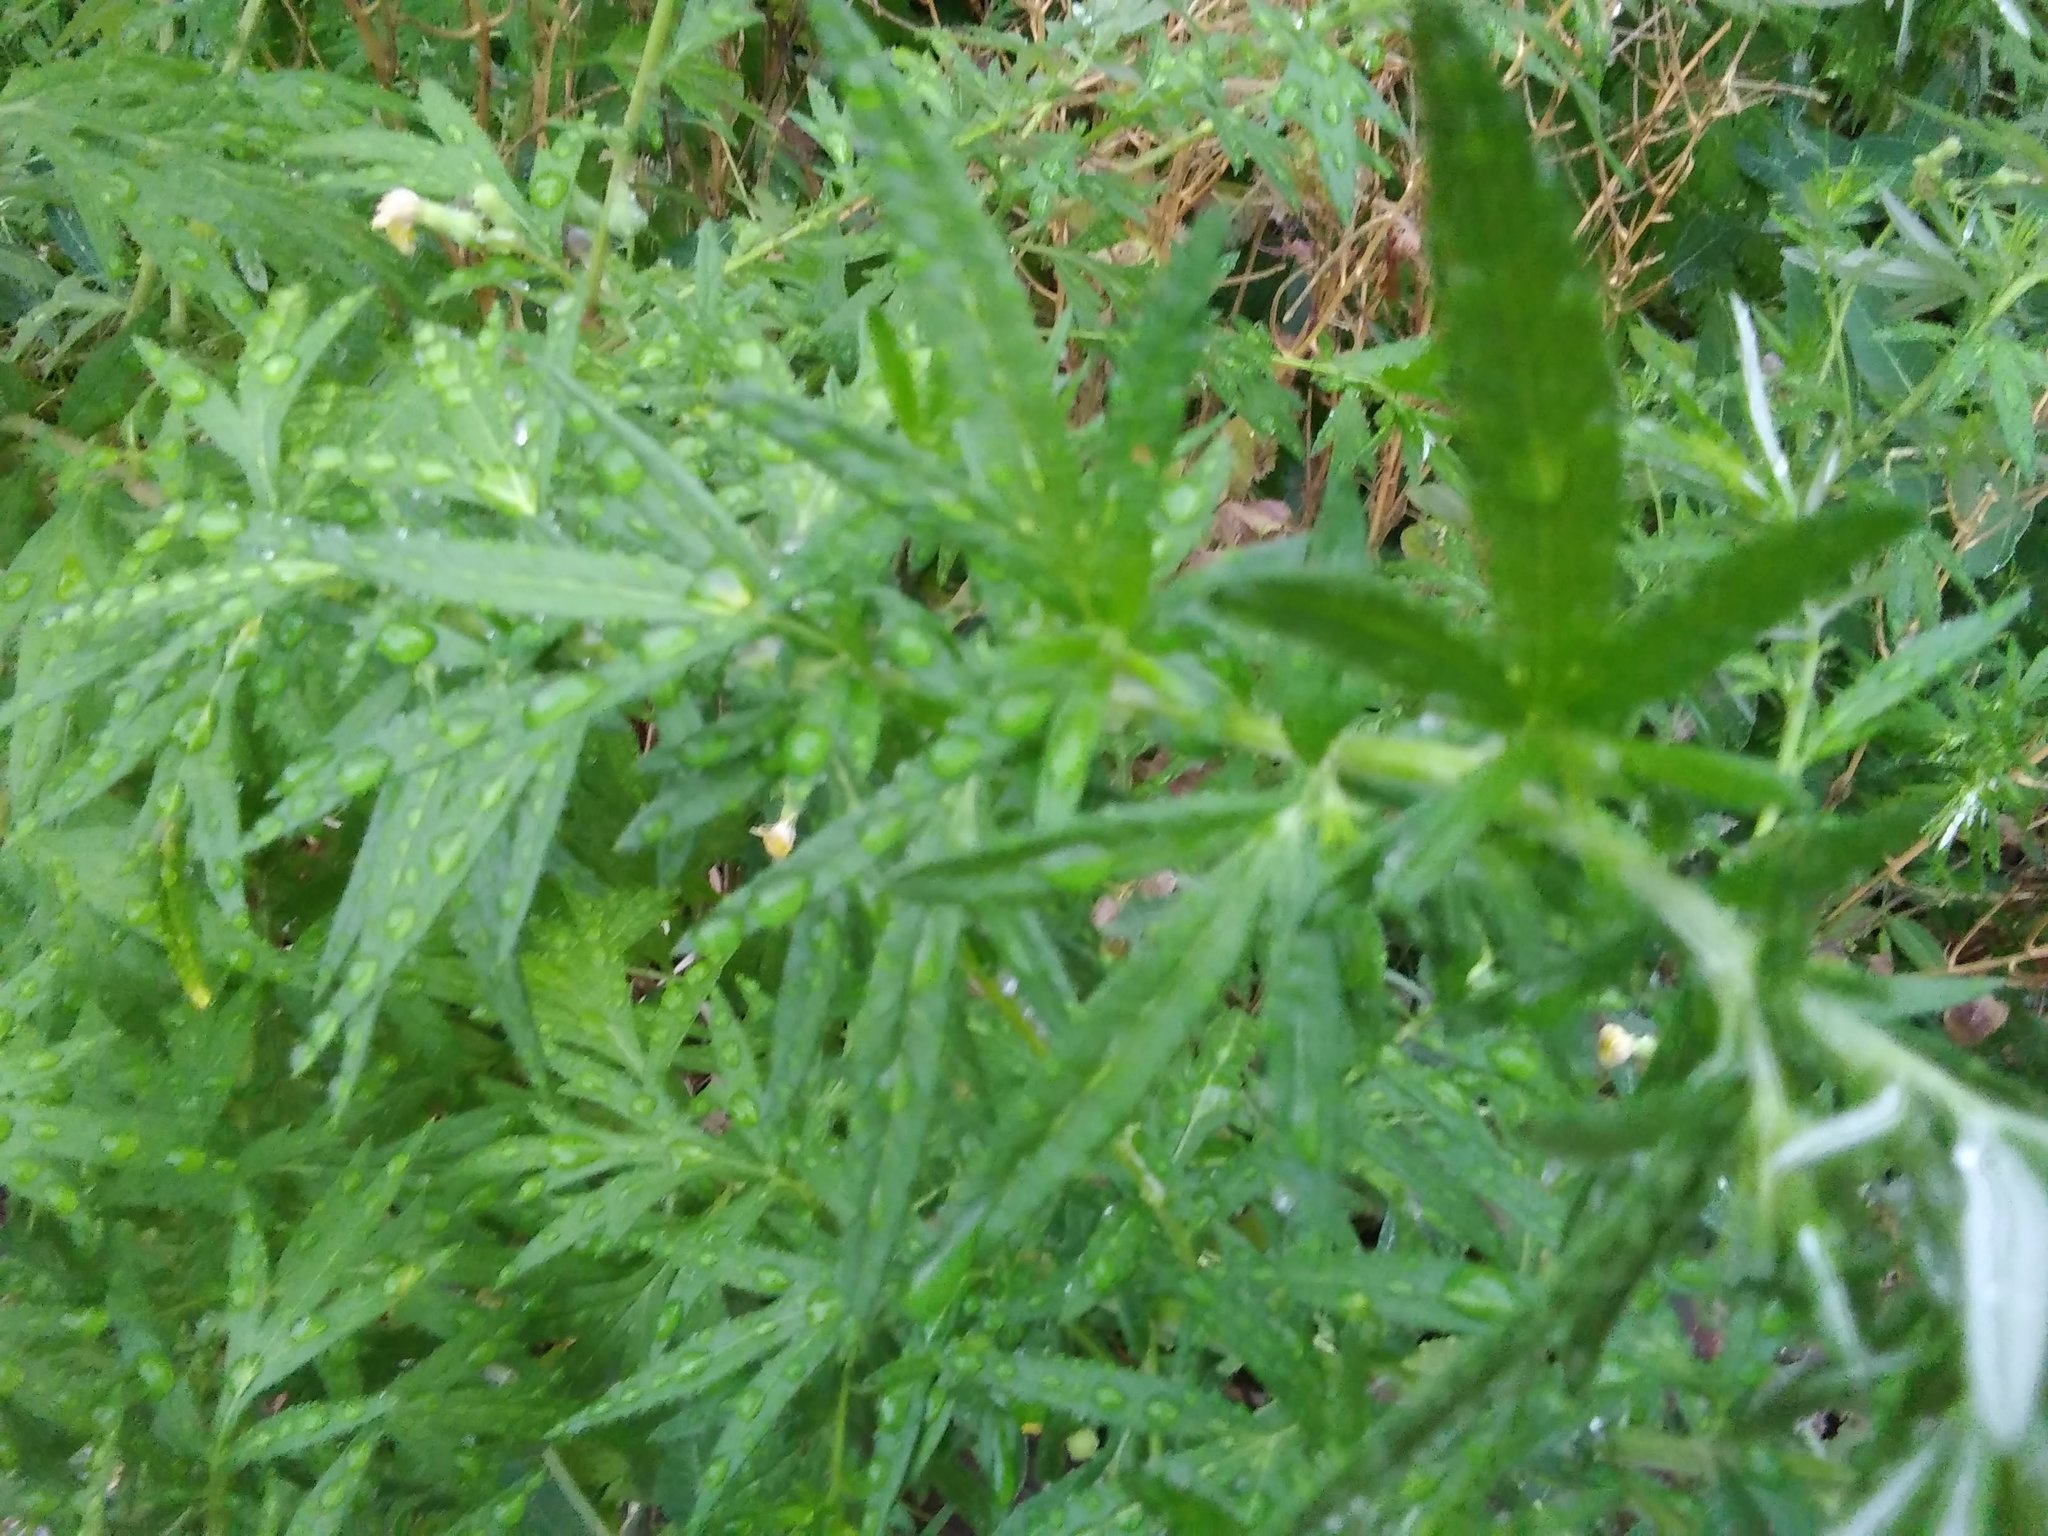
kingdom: Plantae
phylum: Tracheophyta
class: Magnoliopsida
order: Asterales
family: Asteraceae
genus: Artemisia
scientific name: Artemisia vulgaris
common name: Mugwort
